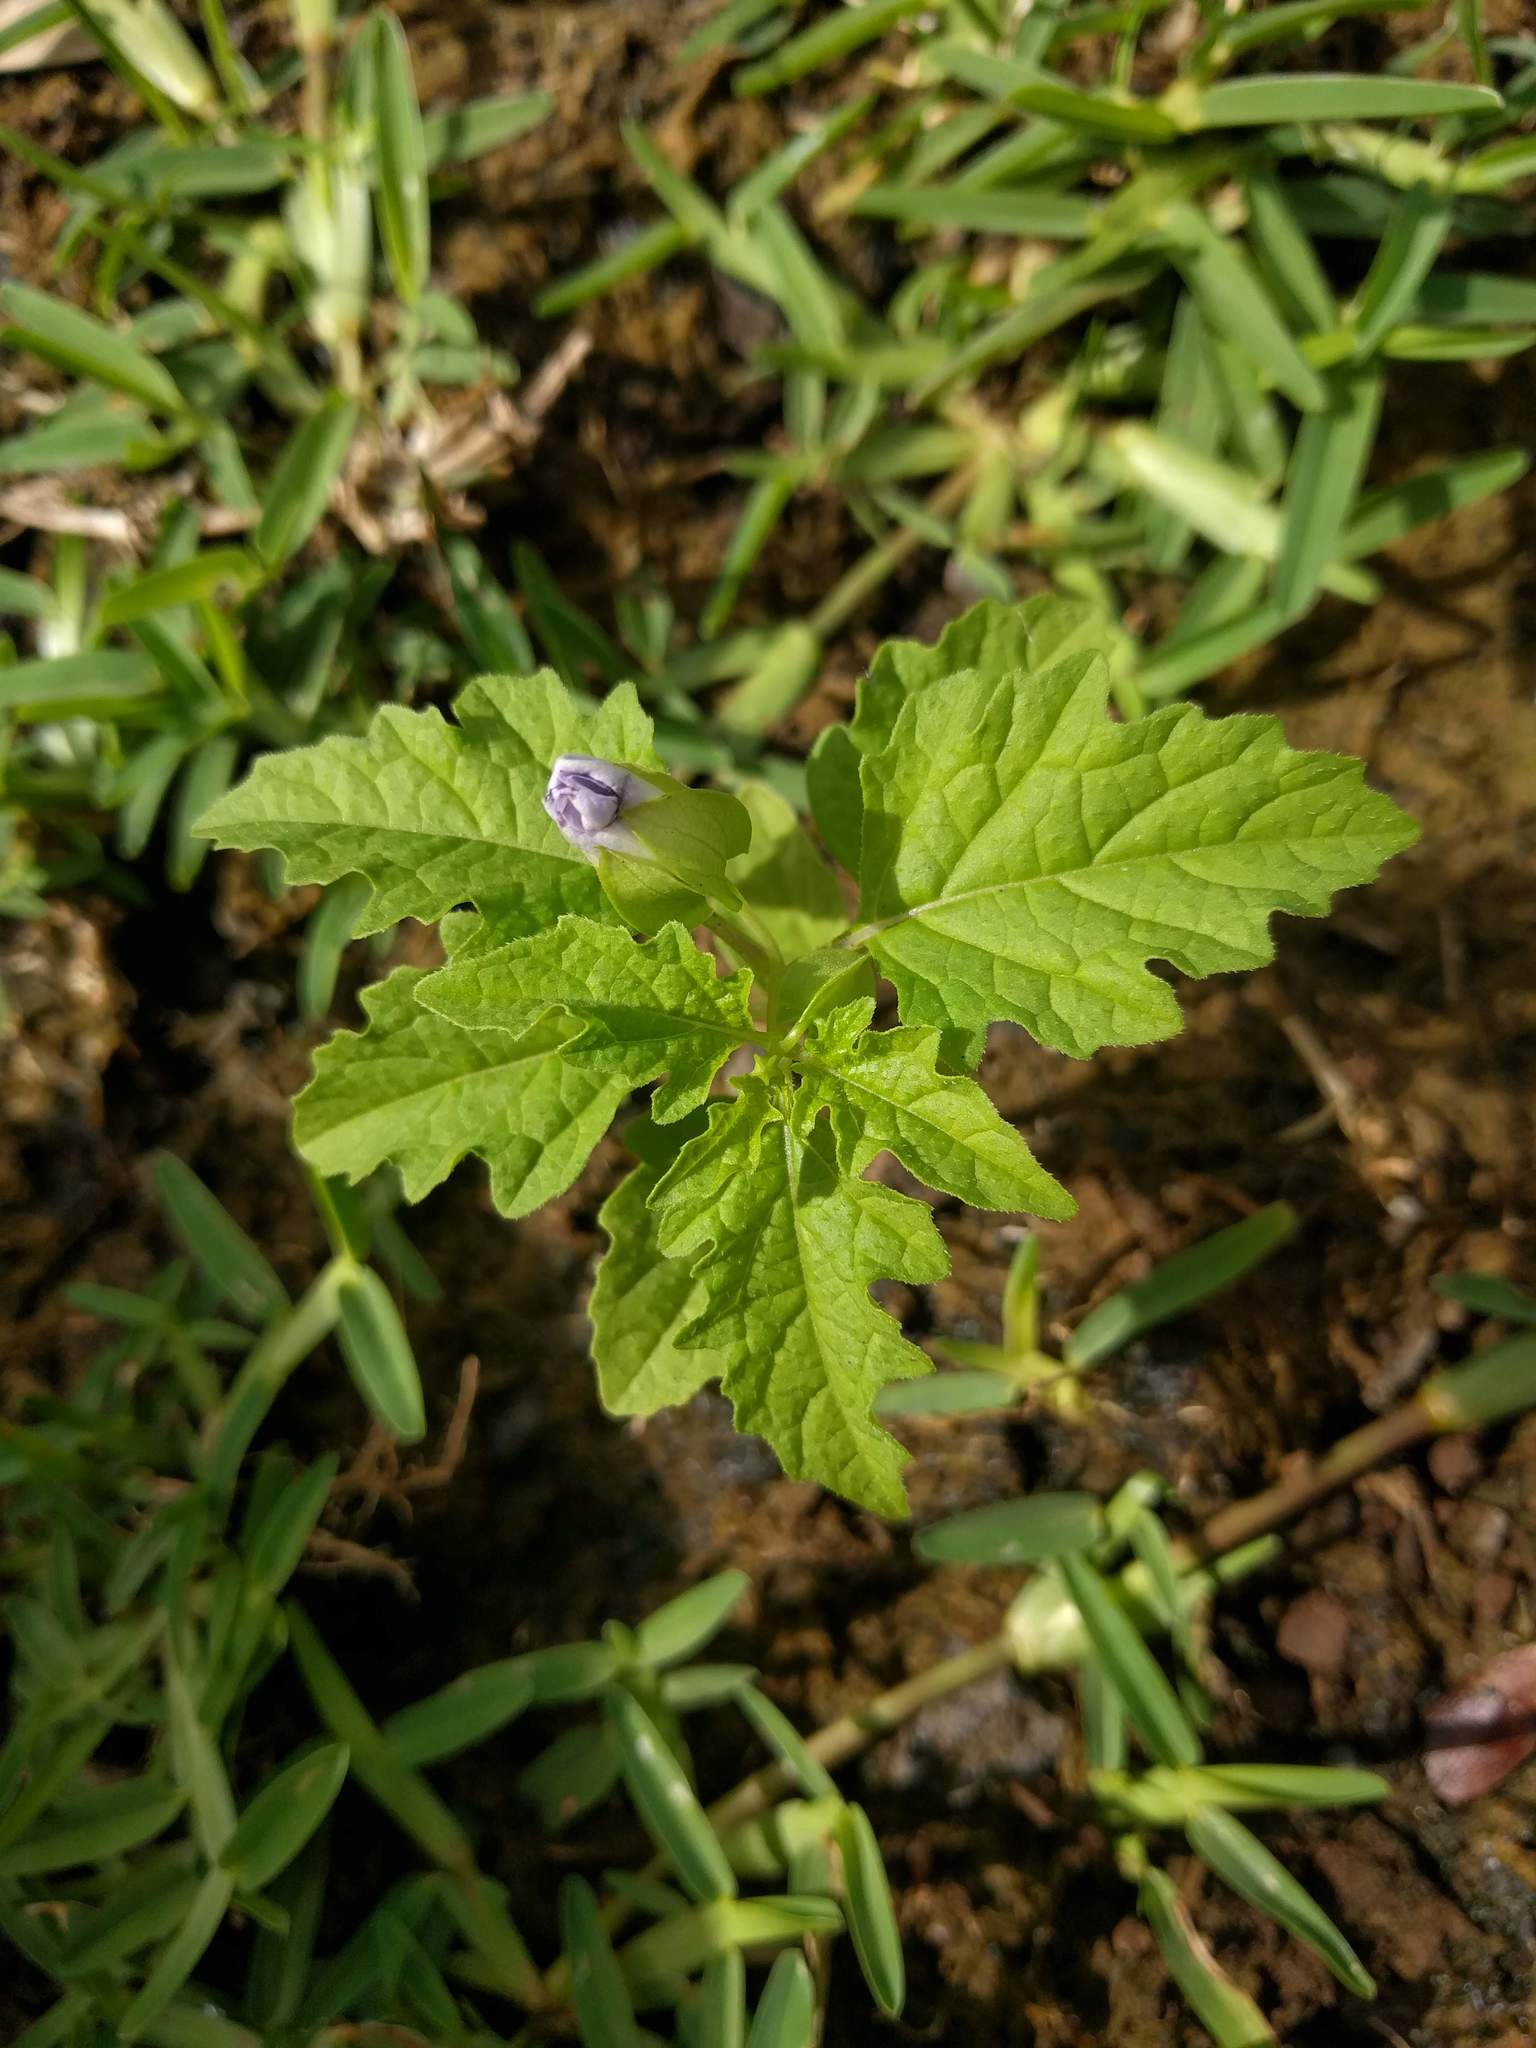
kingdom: Plantae
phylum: Tracheophyta
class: Magnoliopsida
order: Solanales
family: Solanaceae
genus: Nicandra
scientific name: Nicandra physalodes
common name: Apple-of-peru
